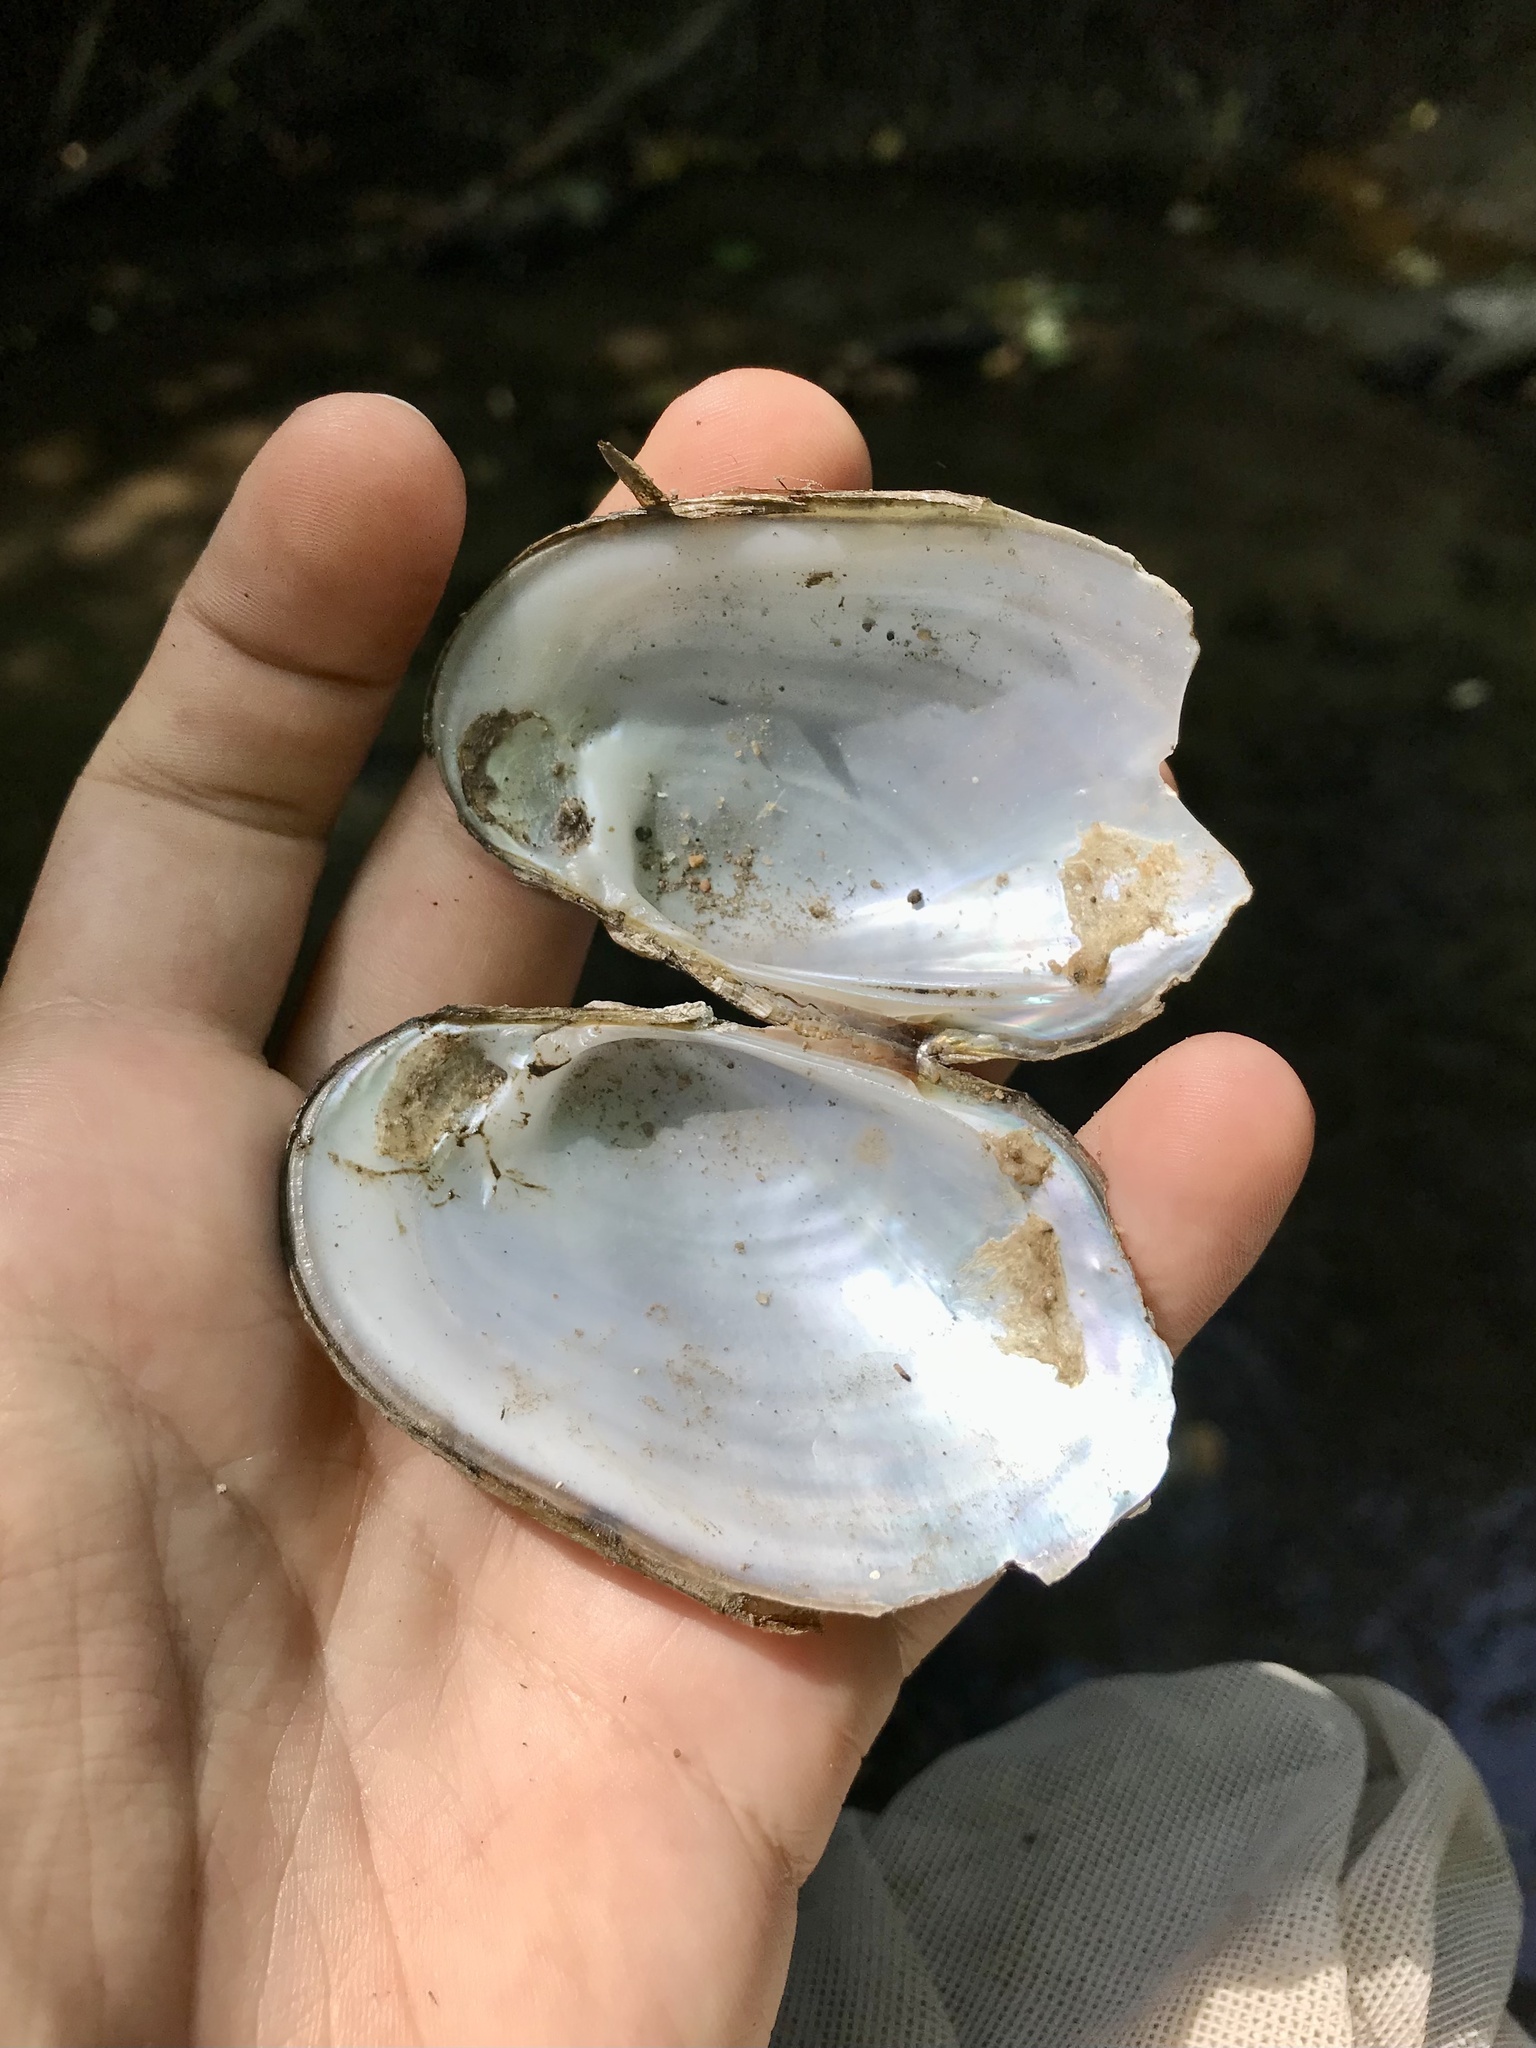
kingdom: Animalia
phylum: Mollusca
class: Bivalvia
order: Unionida
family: Unionidae
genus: Lampsilis
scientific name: Lampsilis siliquoidea
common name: Fatmucket
